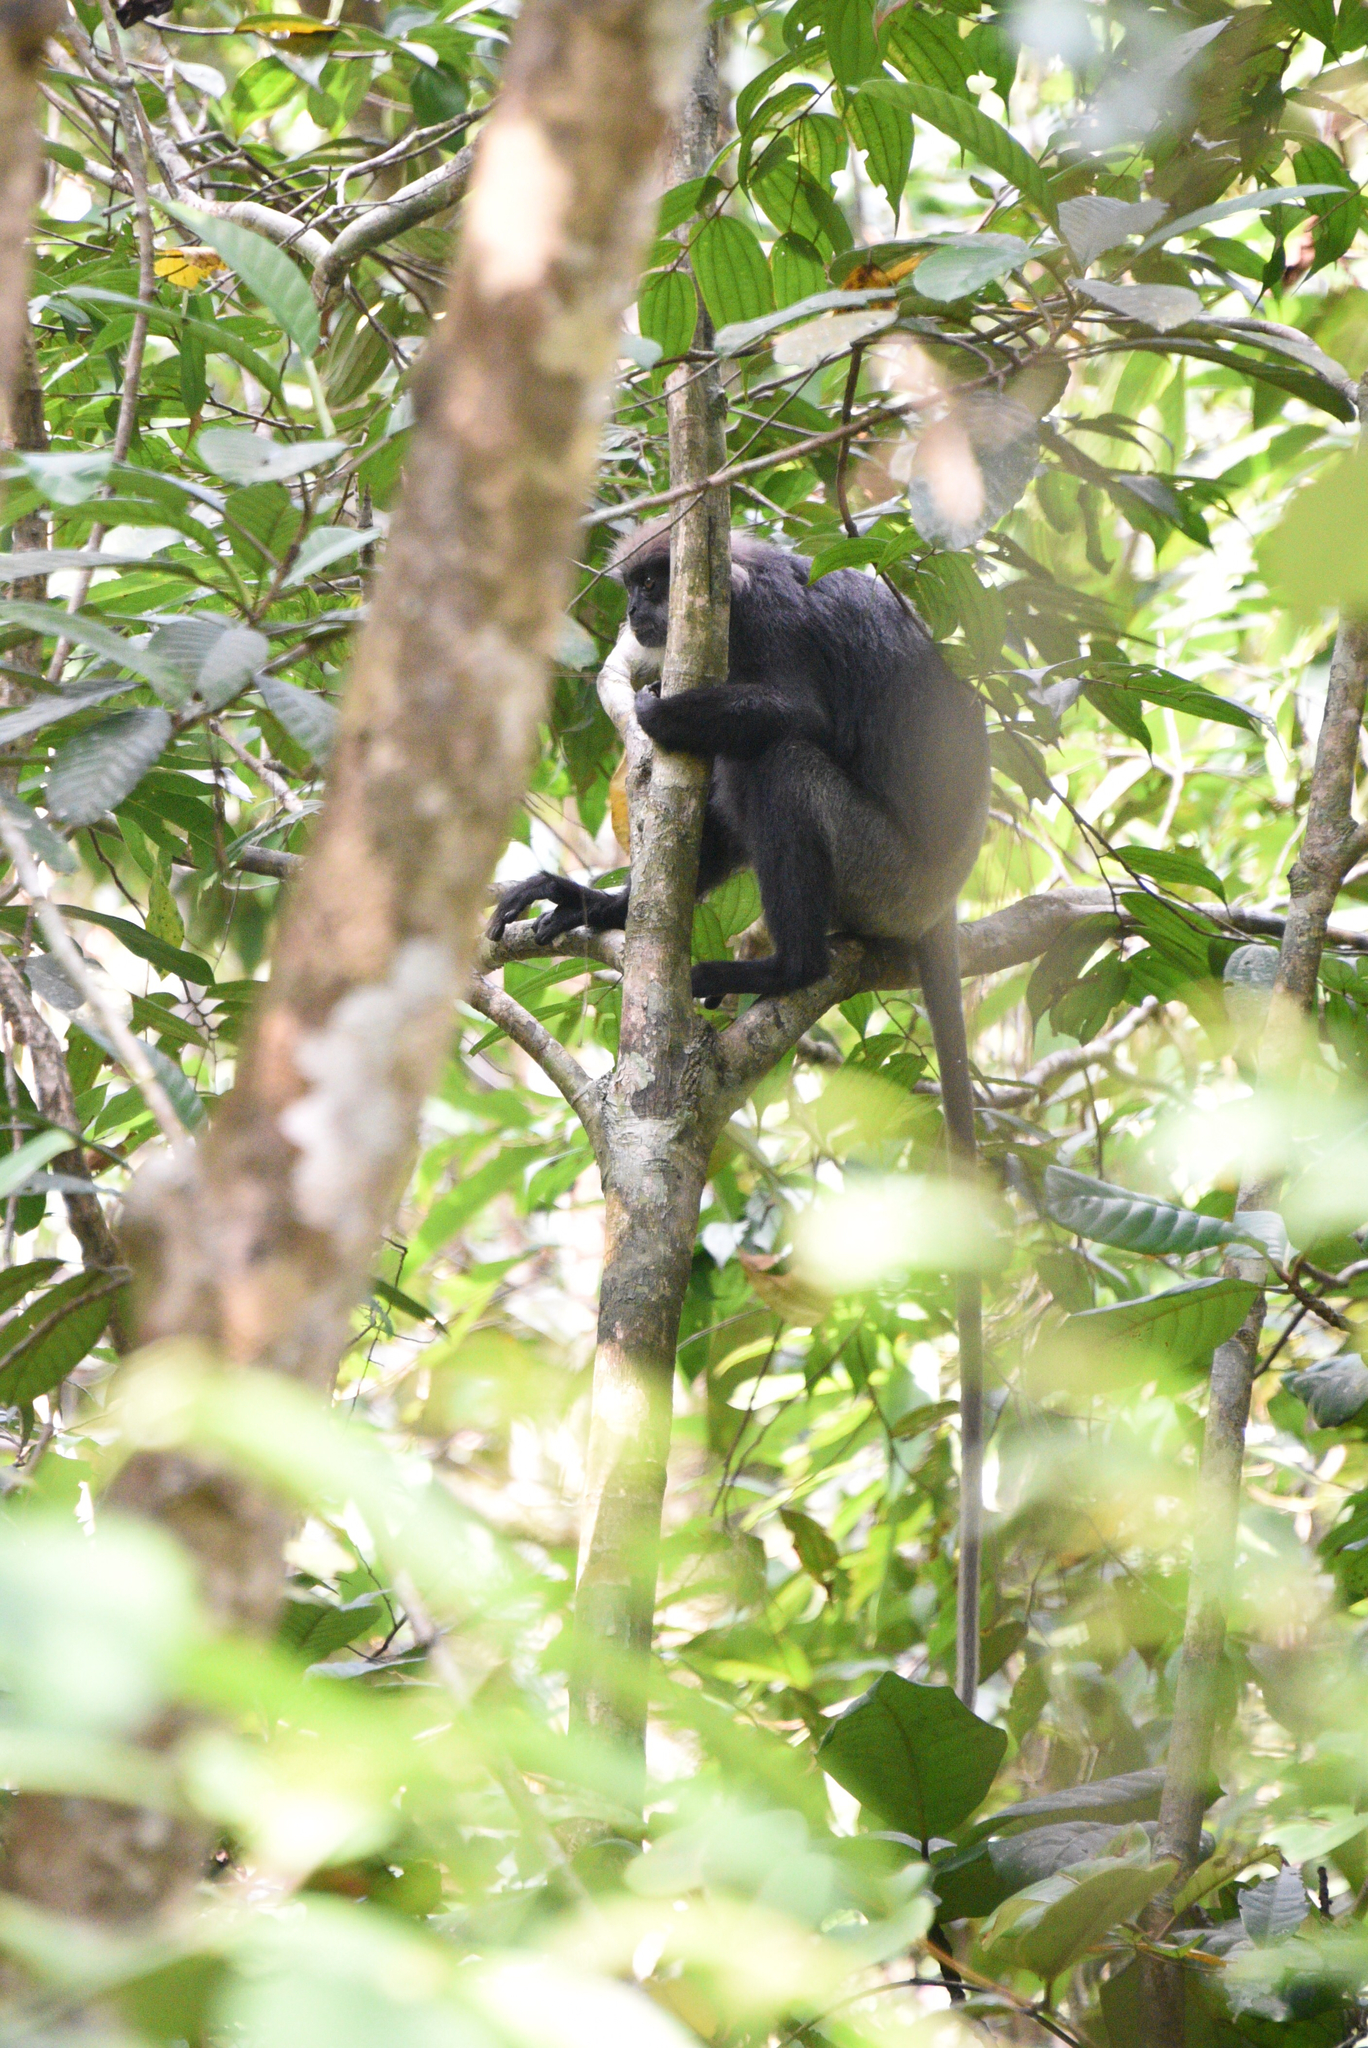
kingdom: Animalia
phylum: Chordata
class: Mammalia
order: Primates
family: Cercopithecidae
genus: Semnopithecus
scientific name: Semnopithecus vetulus
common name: Purple-faced langur
